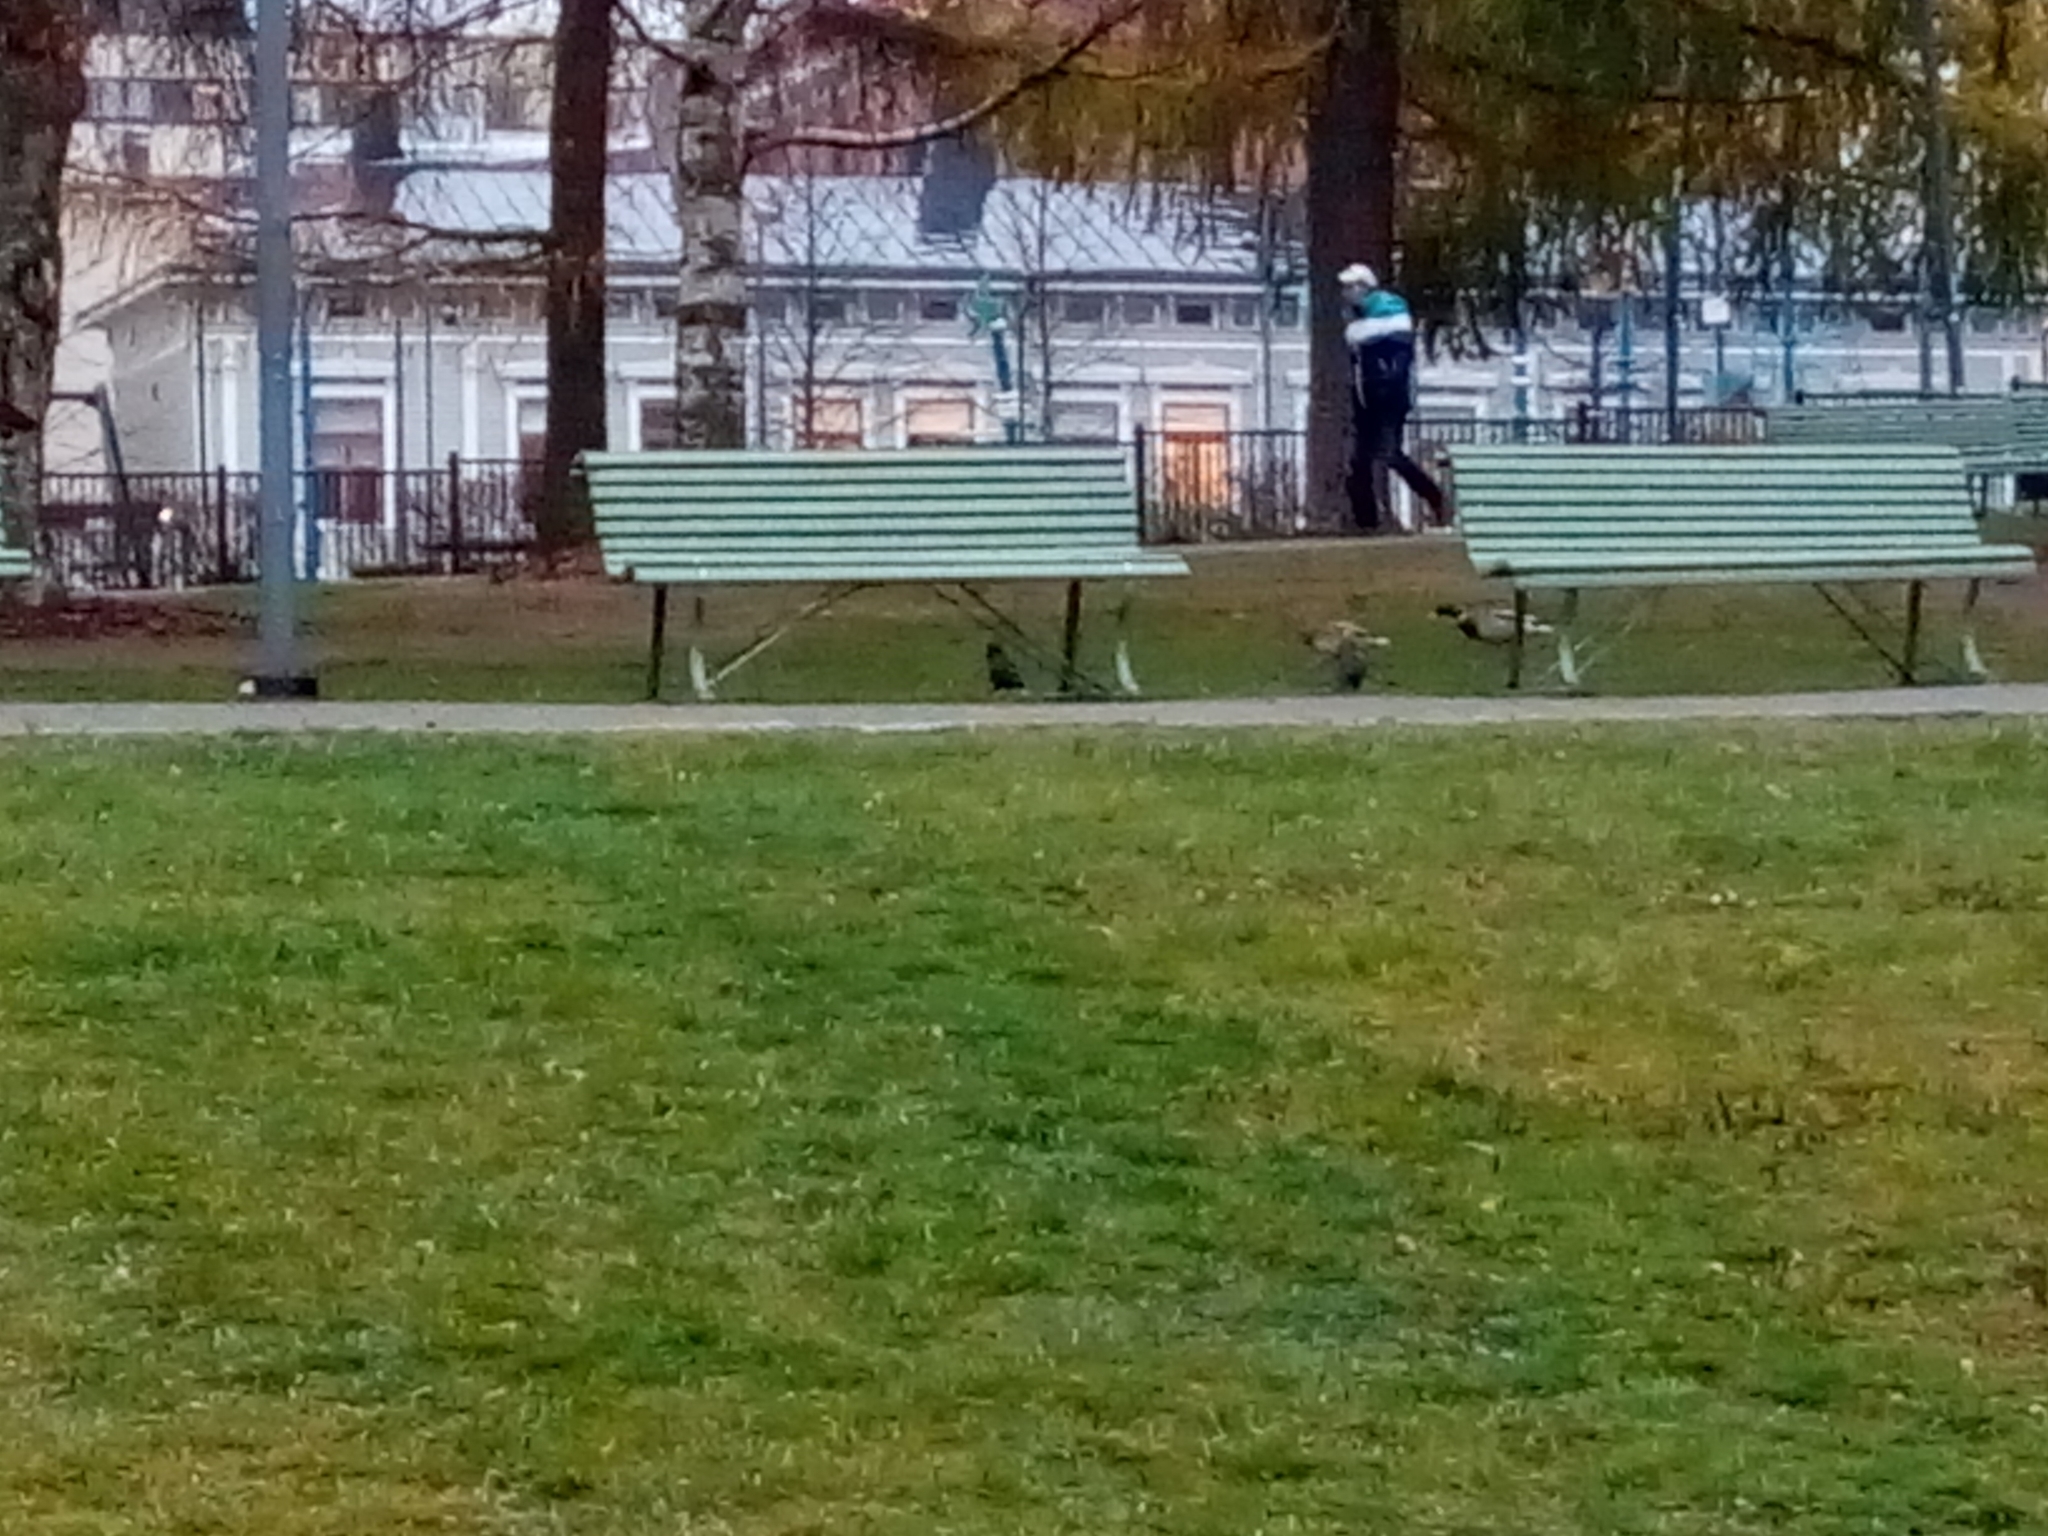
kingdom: Animalia
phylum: Chordata
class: Aves
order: Passeriformes
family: Corvidae
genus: Coloeus
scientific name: Coloeus monedula
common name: Western jackdaw
